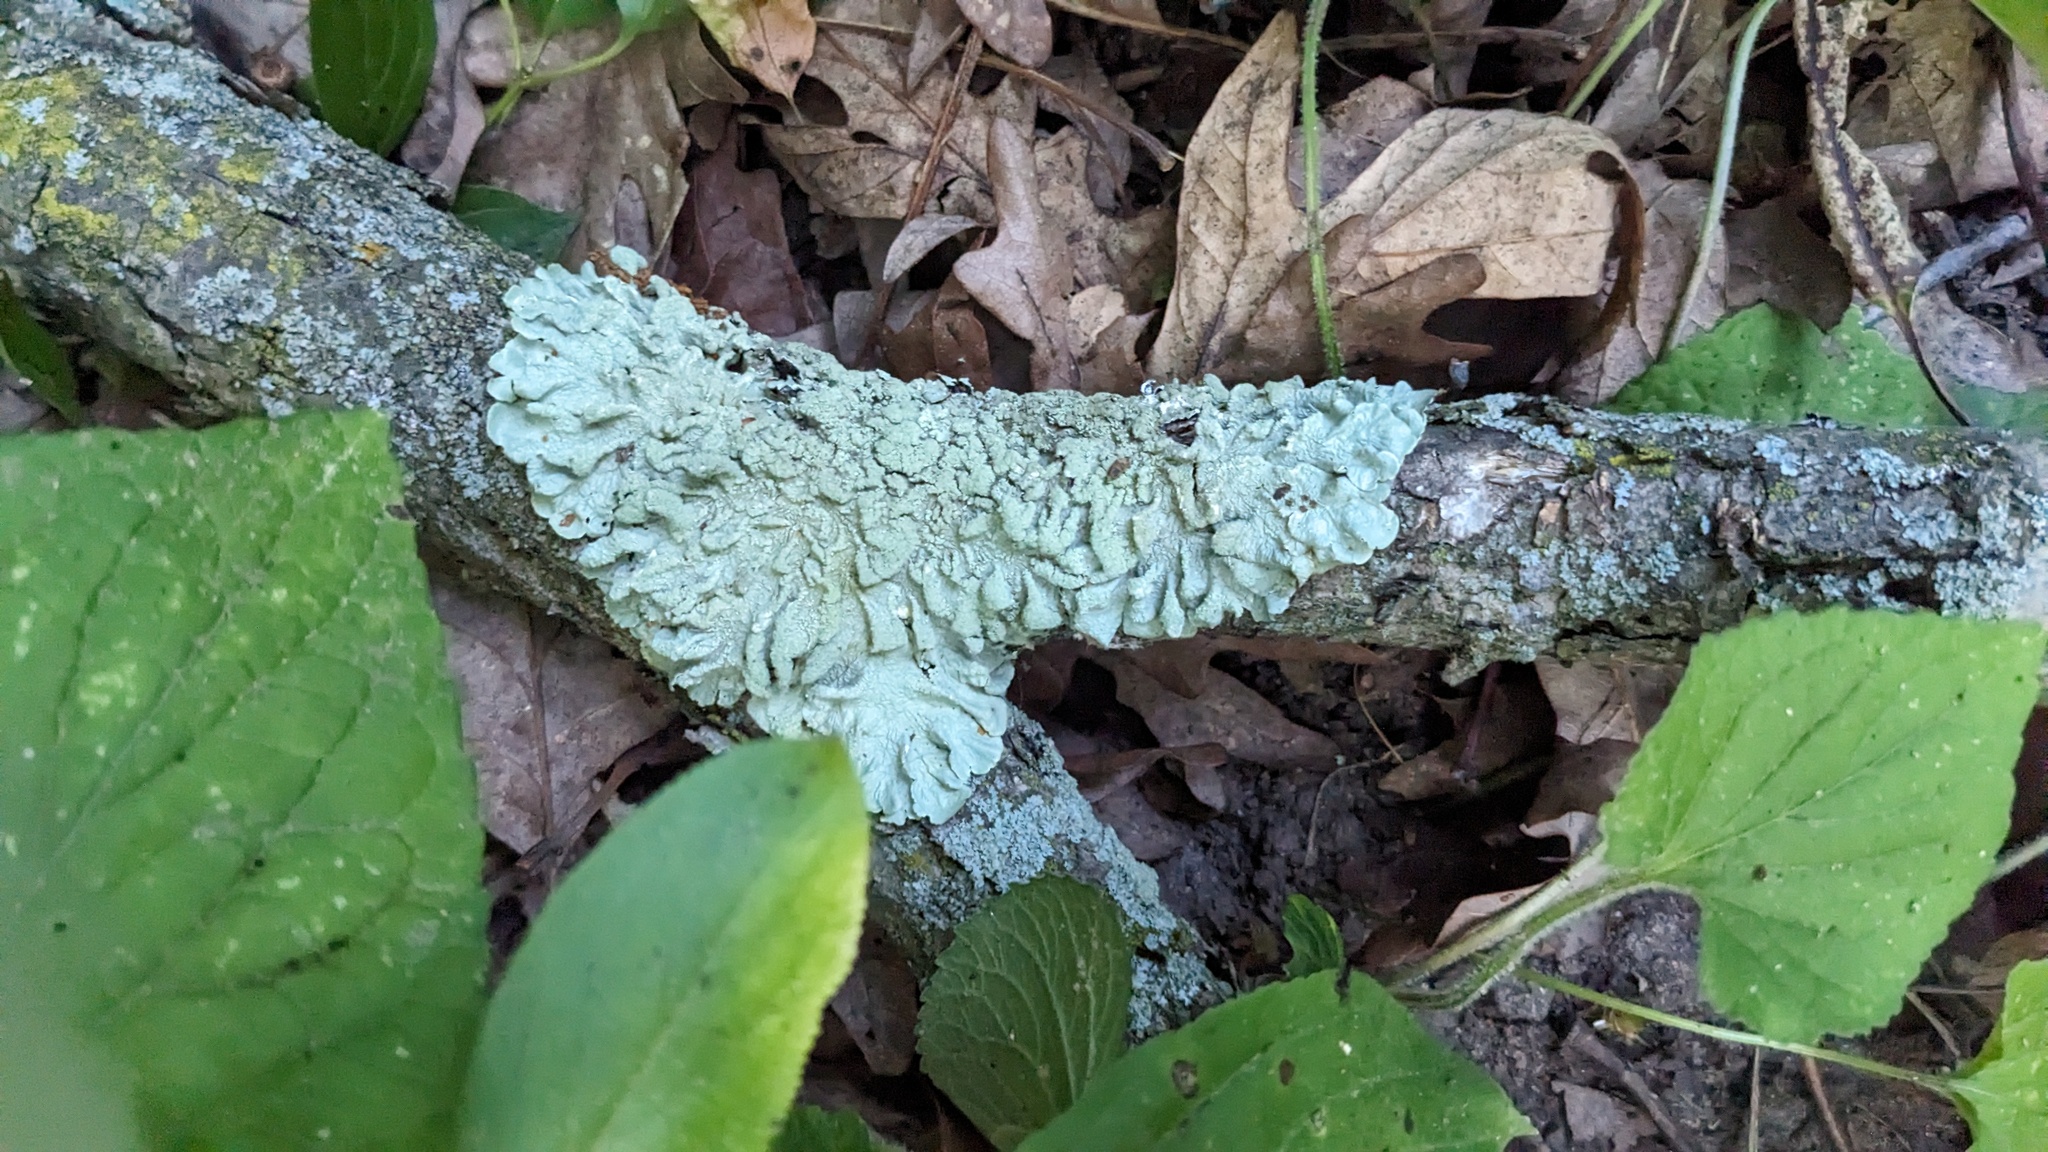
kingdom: Fungi
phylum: Ascomycota
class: Lecanoromycetes
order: Lecanorales
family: Parmeliaceae
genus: Flavoparmelia
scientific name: Flavoparmelia caperata
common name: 40-mile per hour lichen
